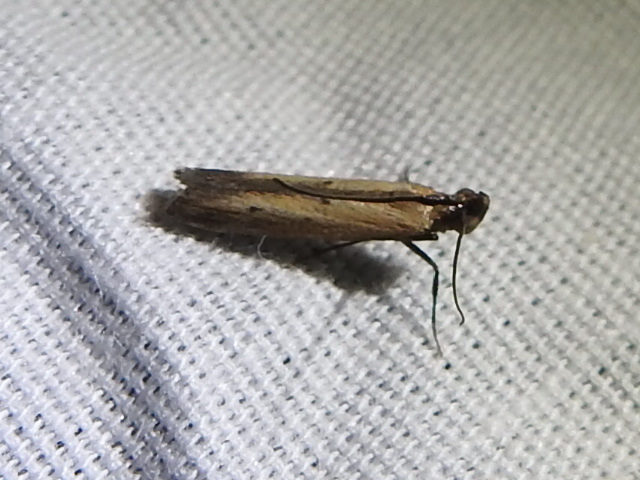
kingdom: Animalia
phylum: Arthropoda
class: Insecta
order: Lepidoptera
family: Pyralidae
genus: Elasmopalpus
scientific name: Elasmopalpus lignosella
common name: Lesser cornstalk borer
